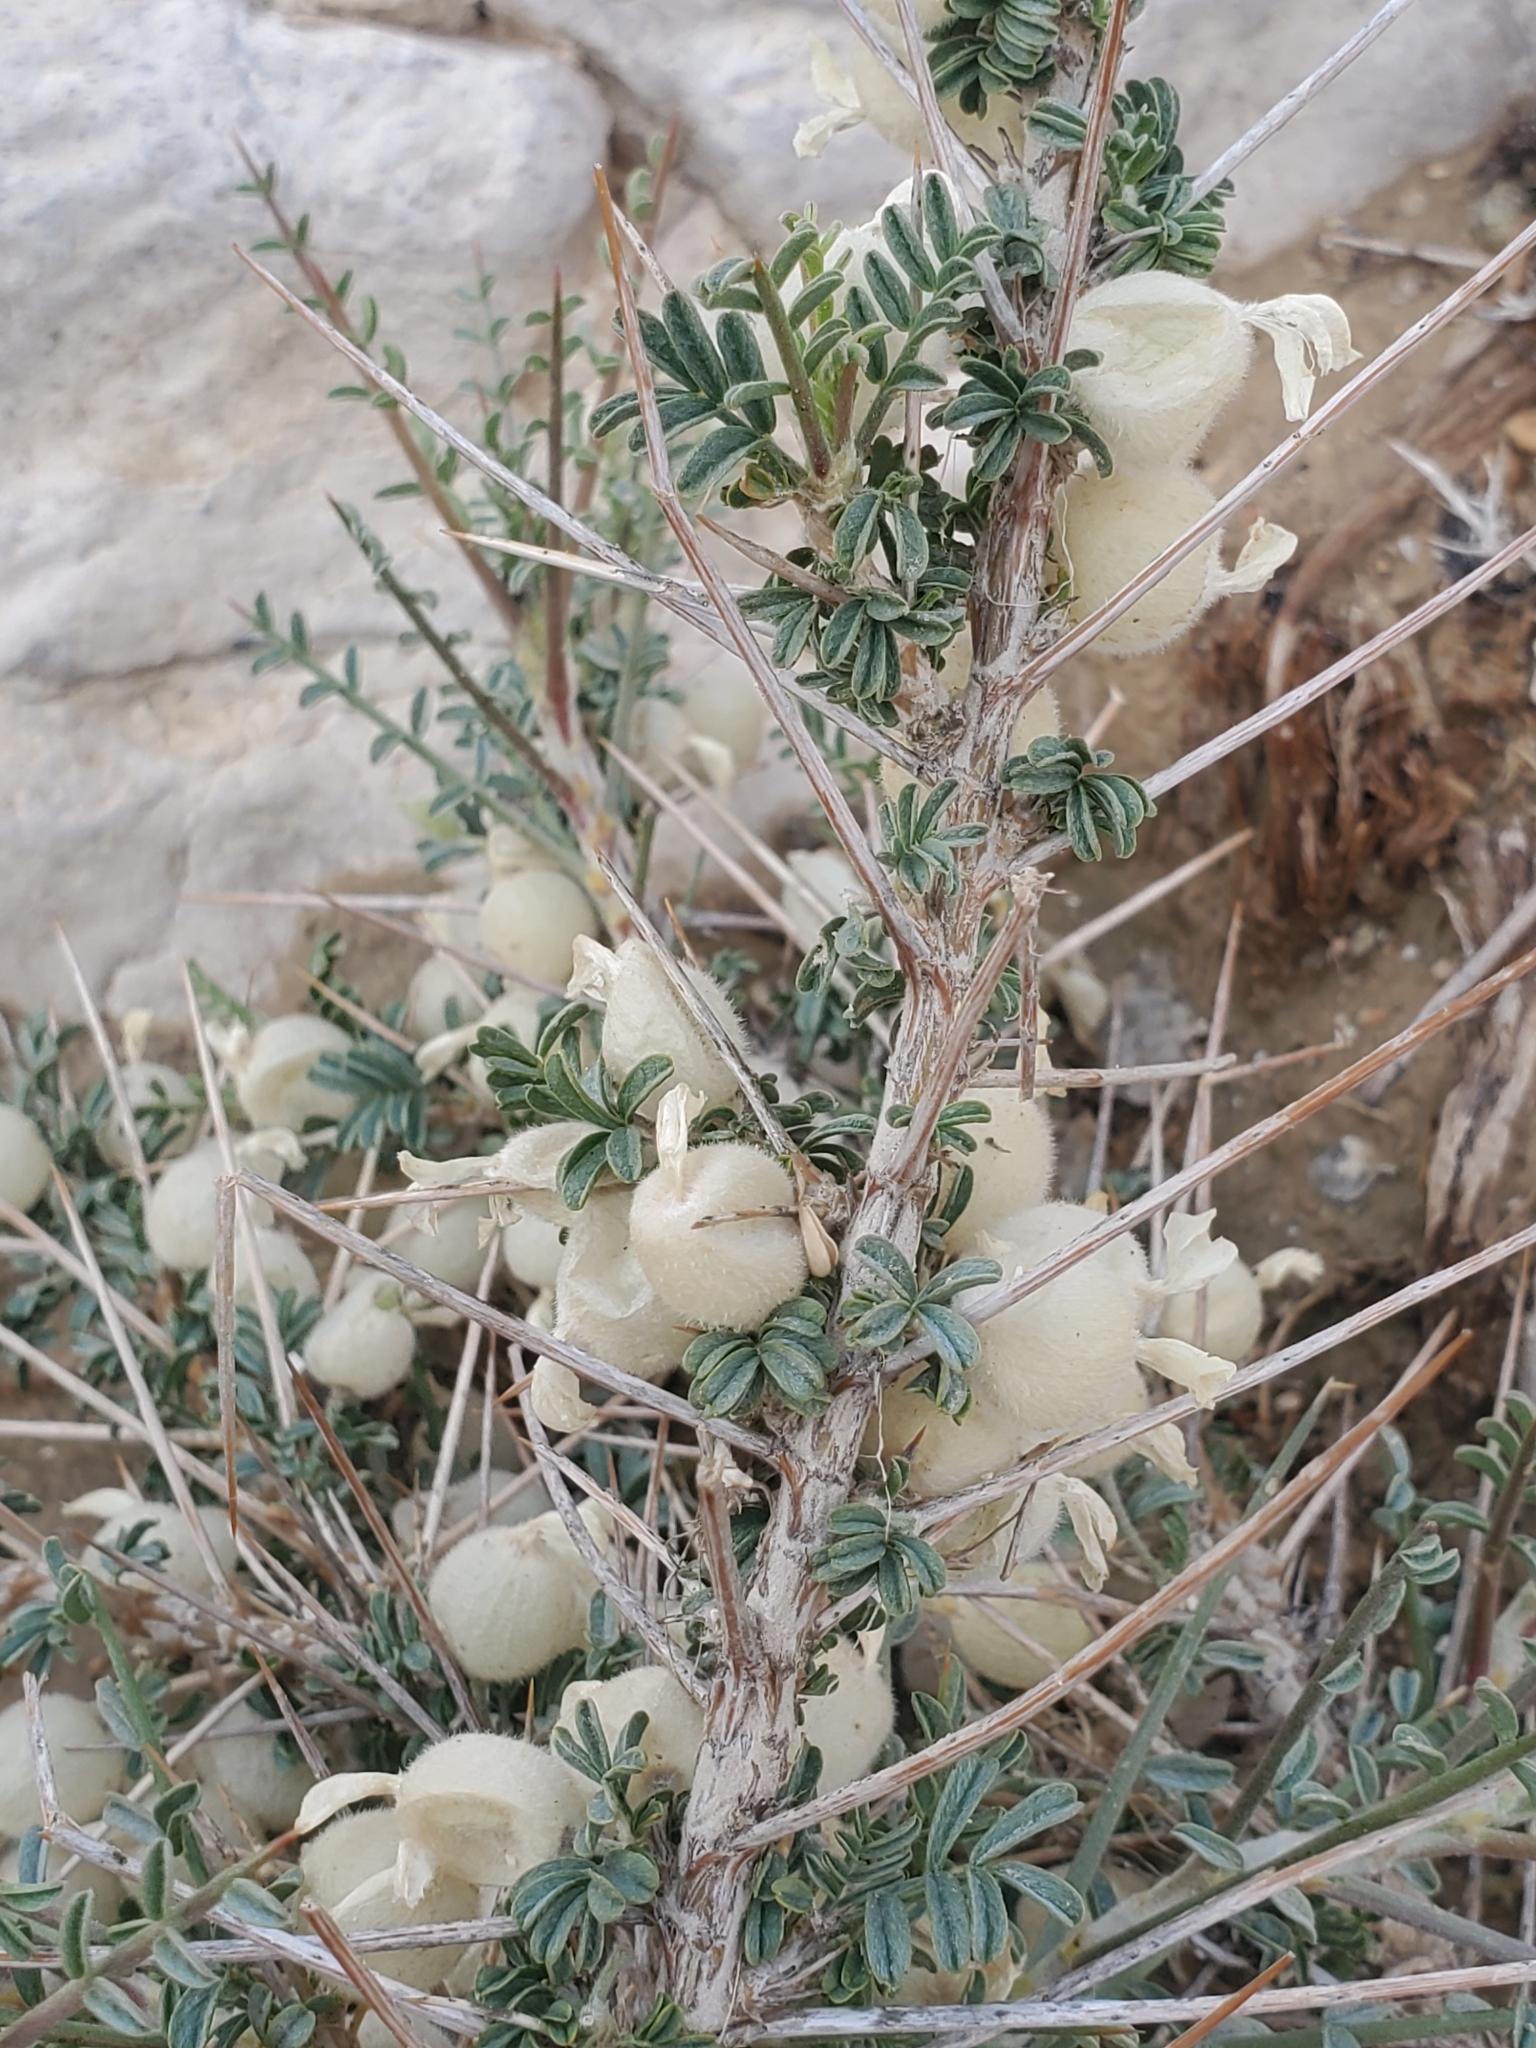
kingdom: Plantae
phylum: Tracheophyta
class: Magnoliopsida
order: Fabales
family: Fabaceae
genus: Astragalus
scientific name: Astragalus spinosus
